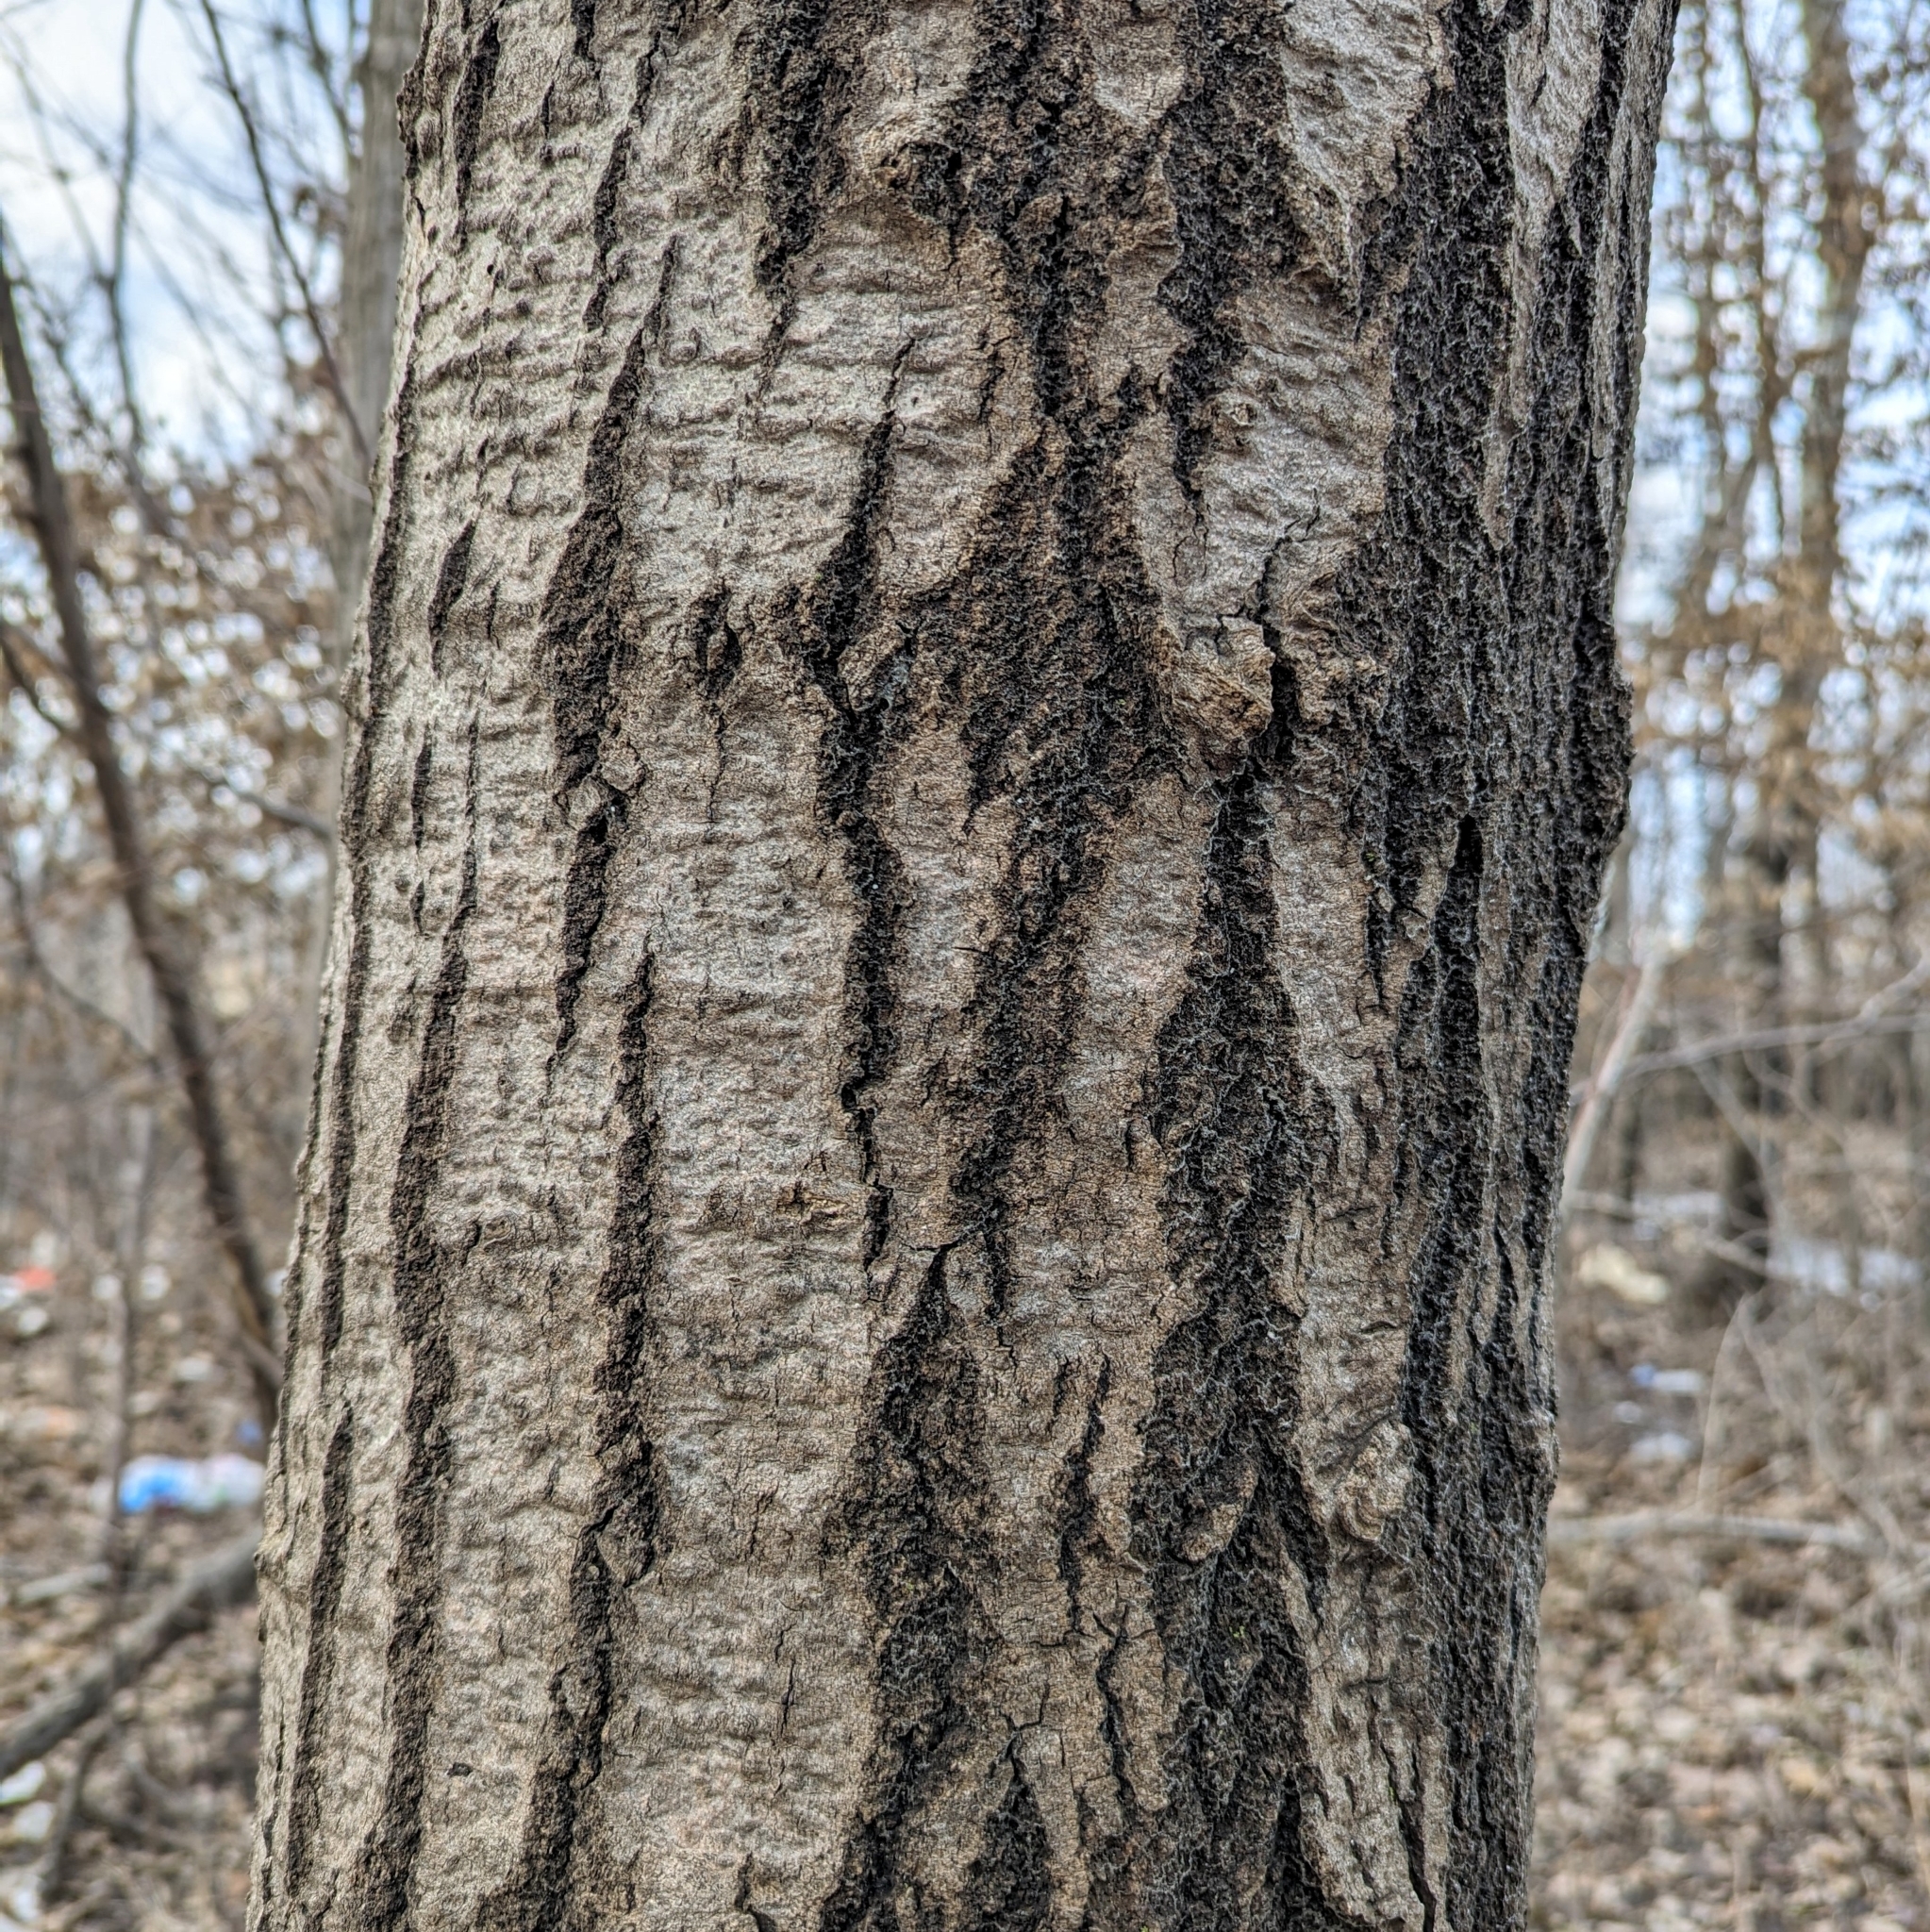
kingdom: Plantae
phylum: Tracheophyta
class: Magnoliopsida
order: Malpighiales
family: Salicaceae
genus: Populus
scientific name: Populus tremuloides
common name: Quaking aspen
